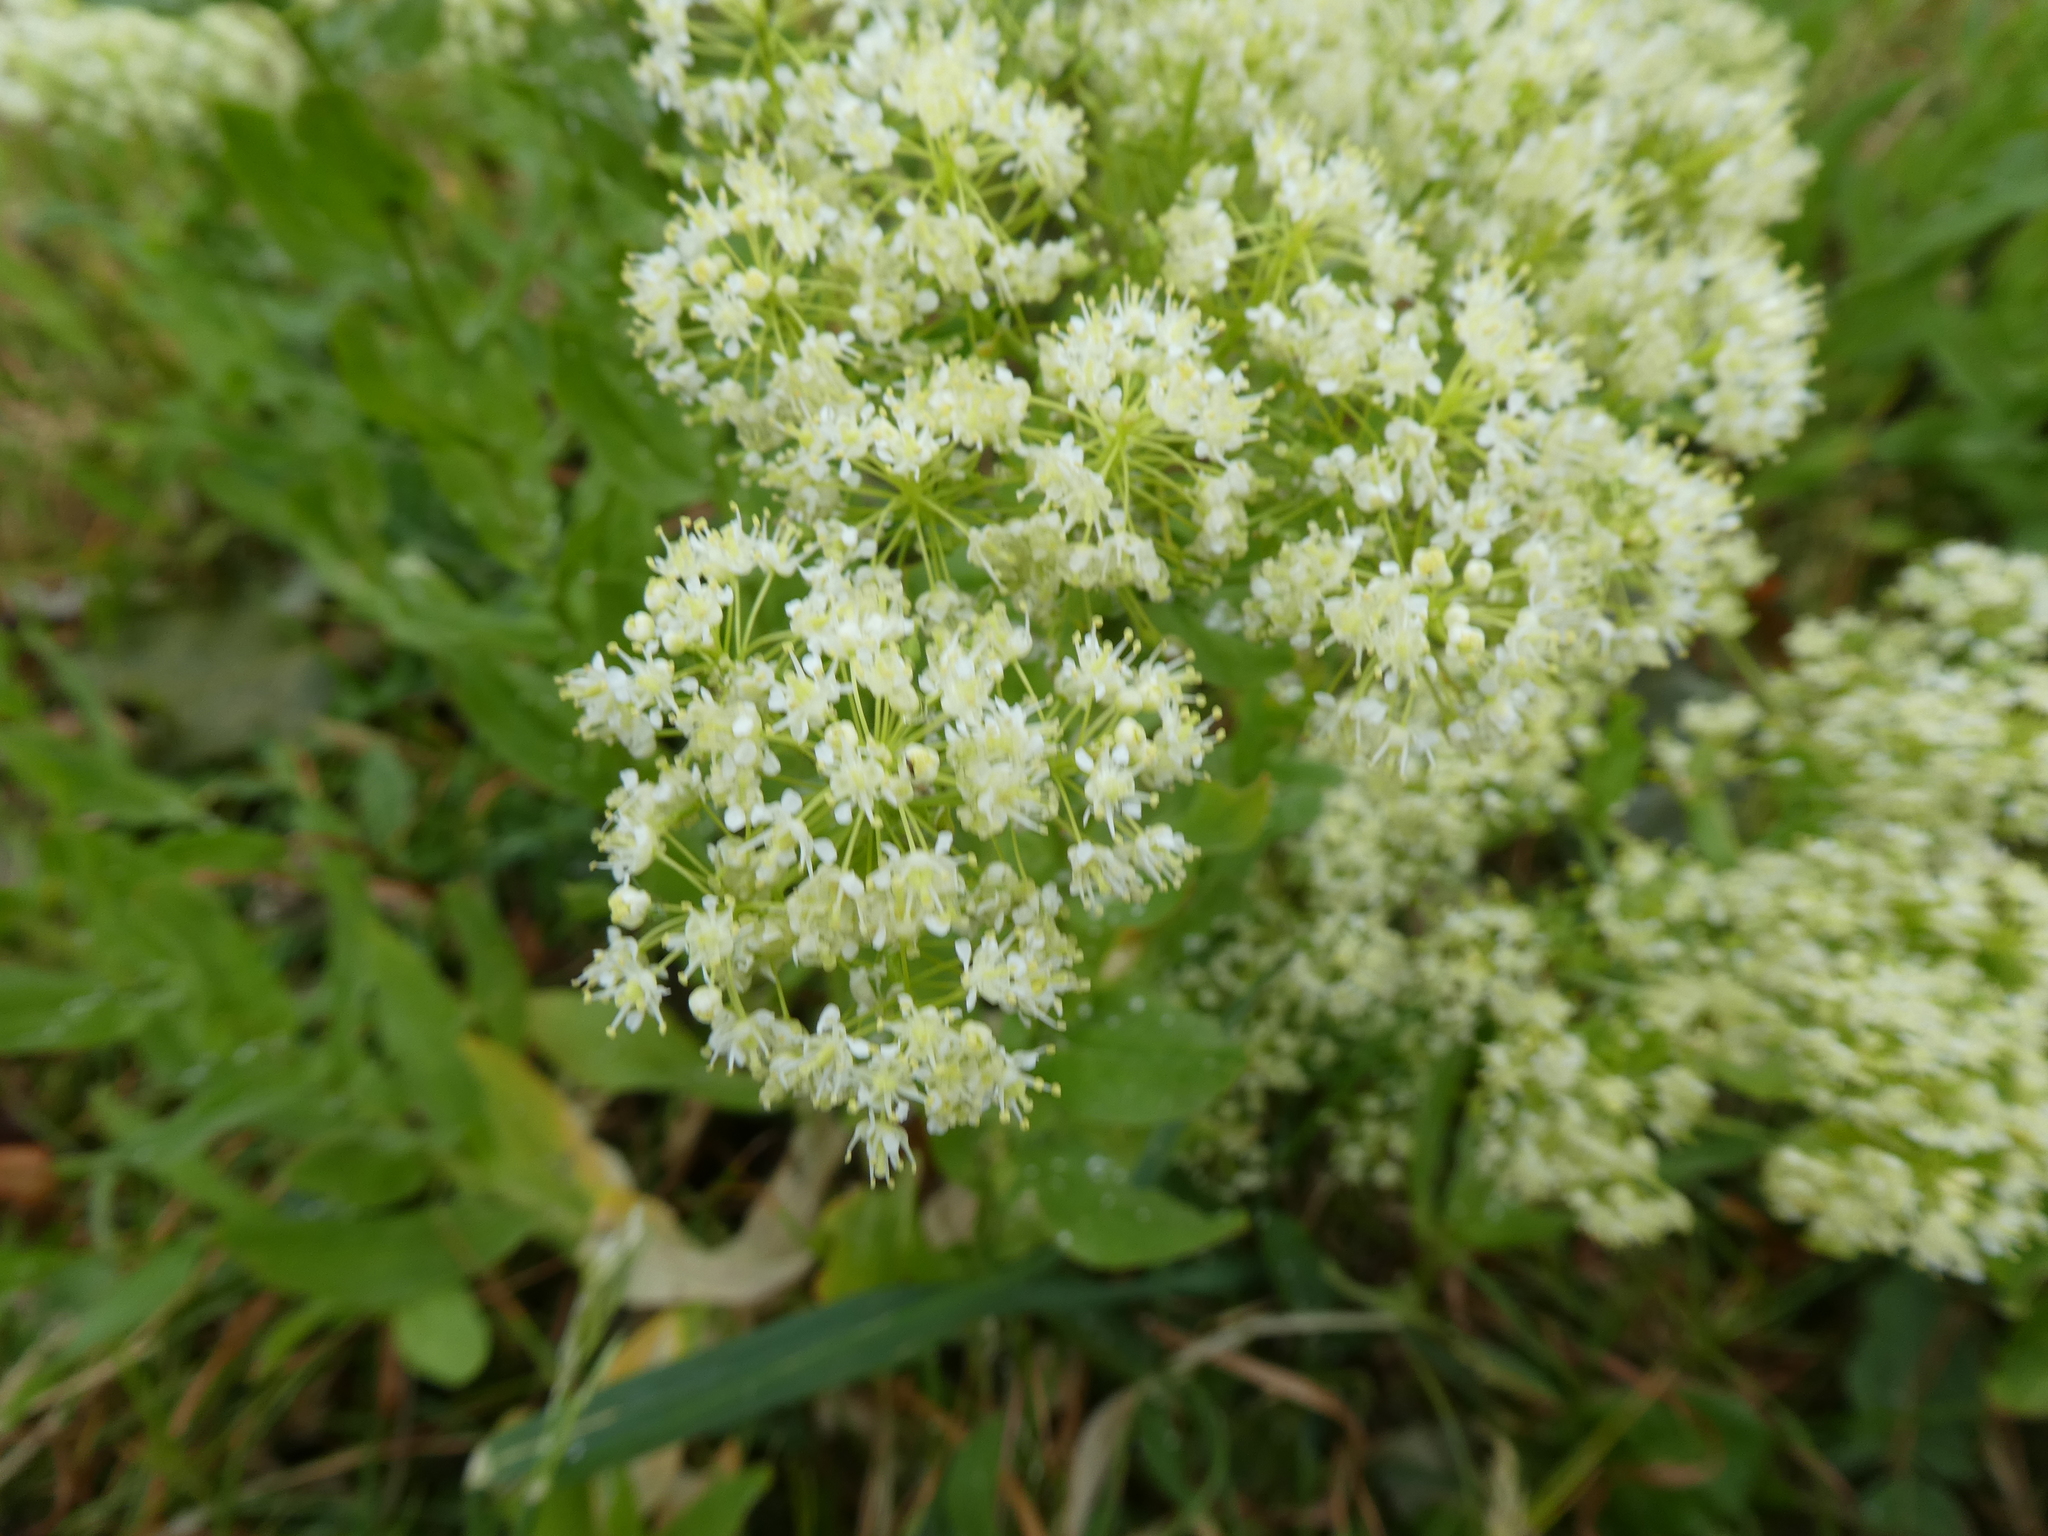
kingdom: Plantae
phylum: Tracheophyta
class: Magnoliopsida
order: Brassicales
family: Brassicaceae
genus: Lepidium
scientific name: Lepidium draba
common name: Hoary cress
